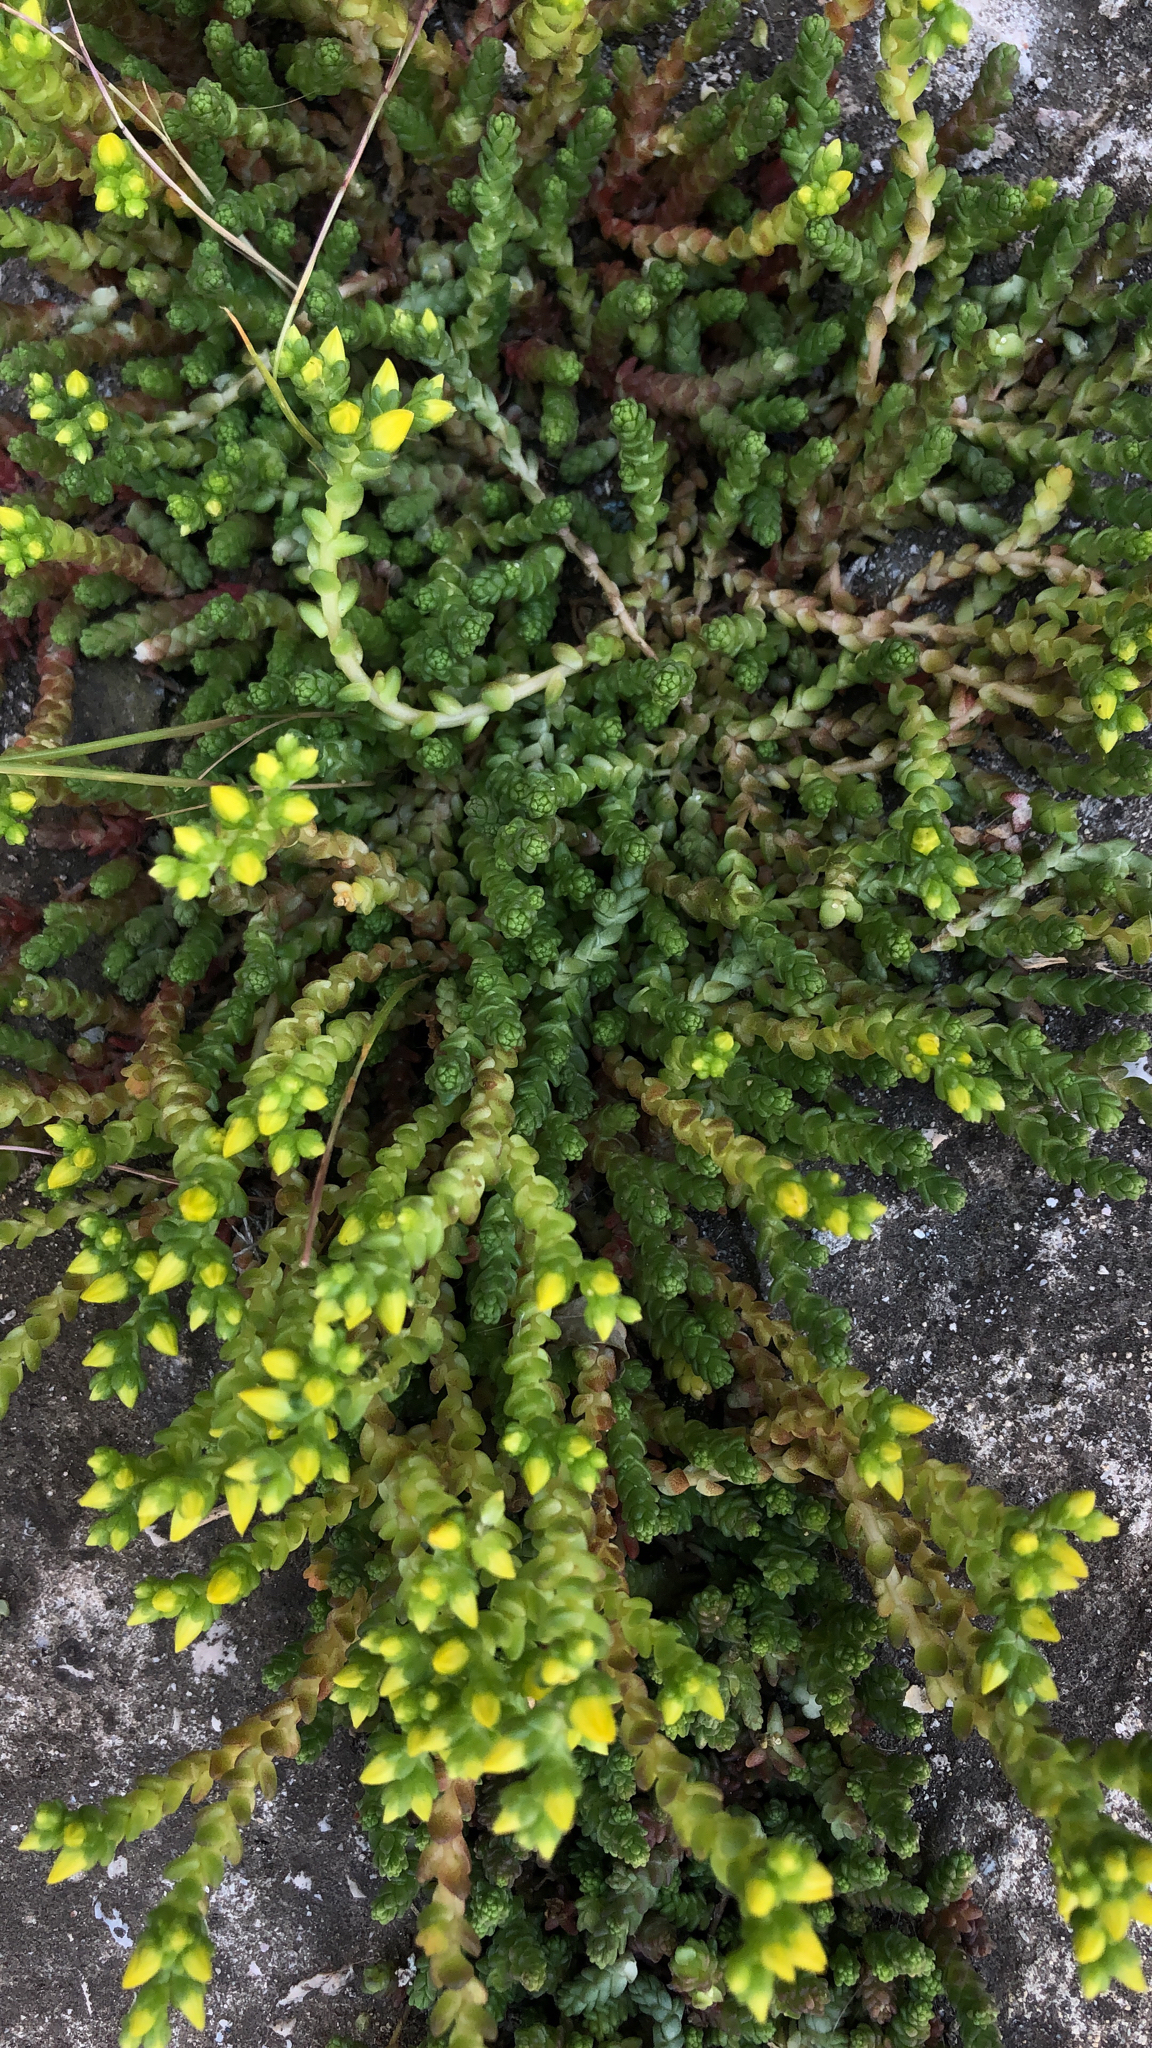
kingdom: Plantae
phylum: Tracheophyta
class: Magnoliopsida
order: Saxifragales
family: Crassulaceae
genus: Sedum
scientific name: Sedum acre
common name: Biting stonecrop
